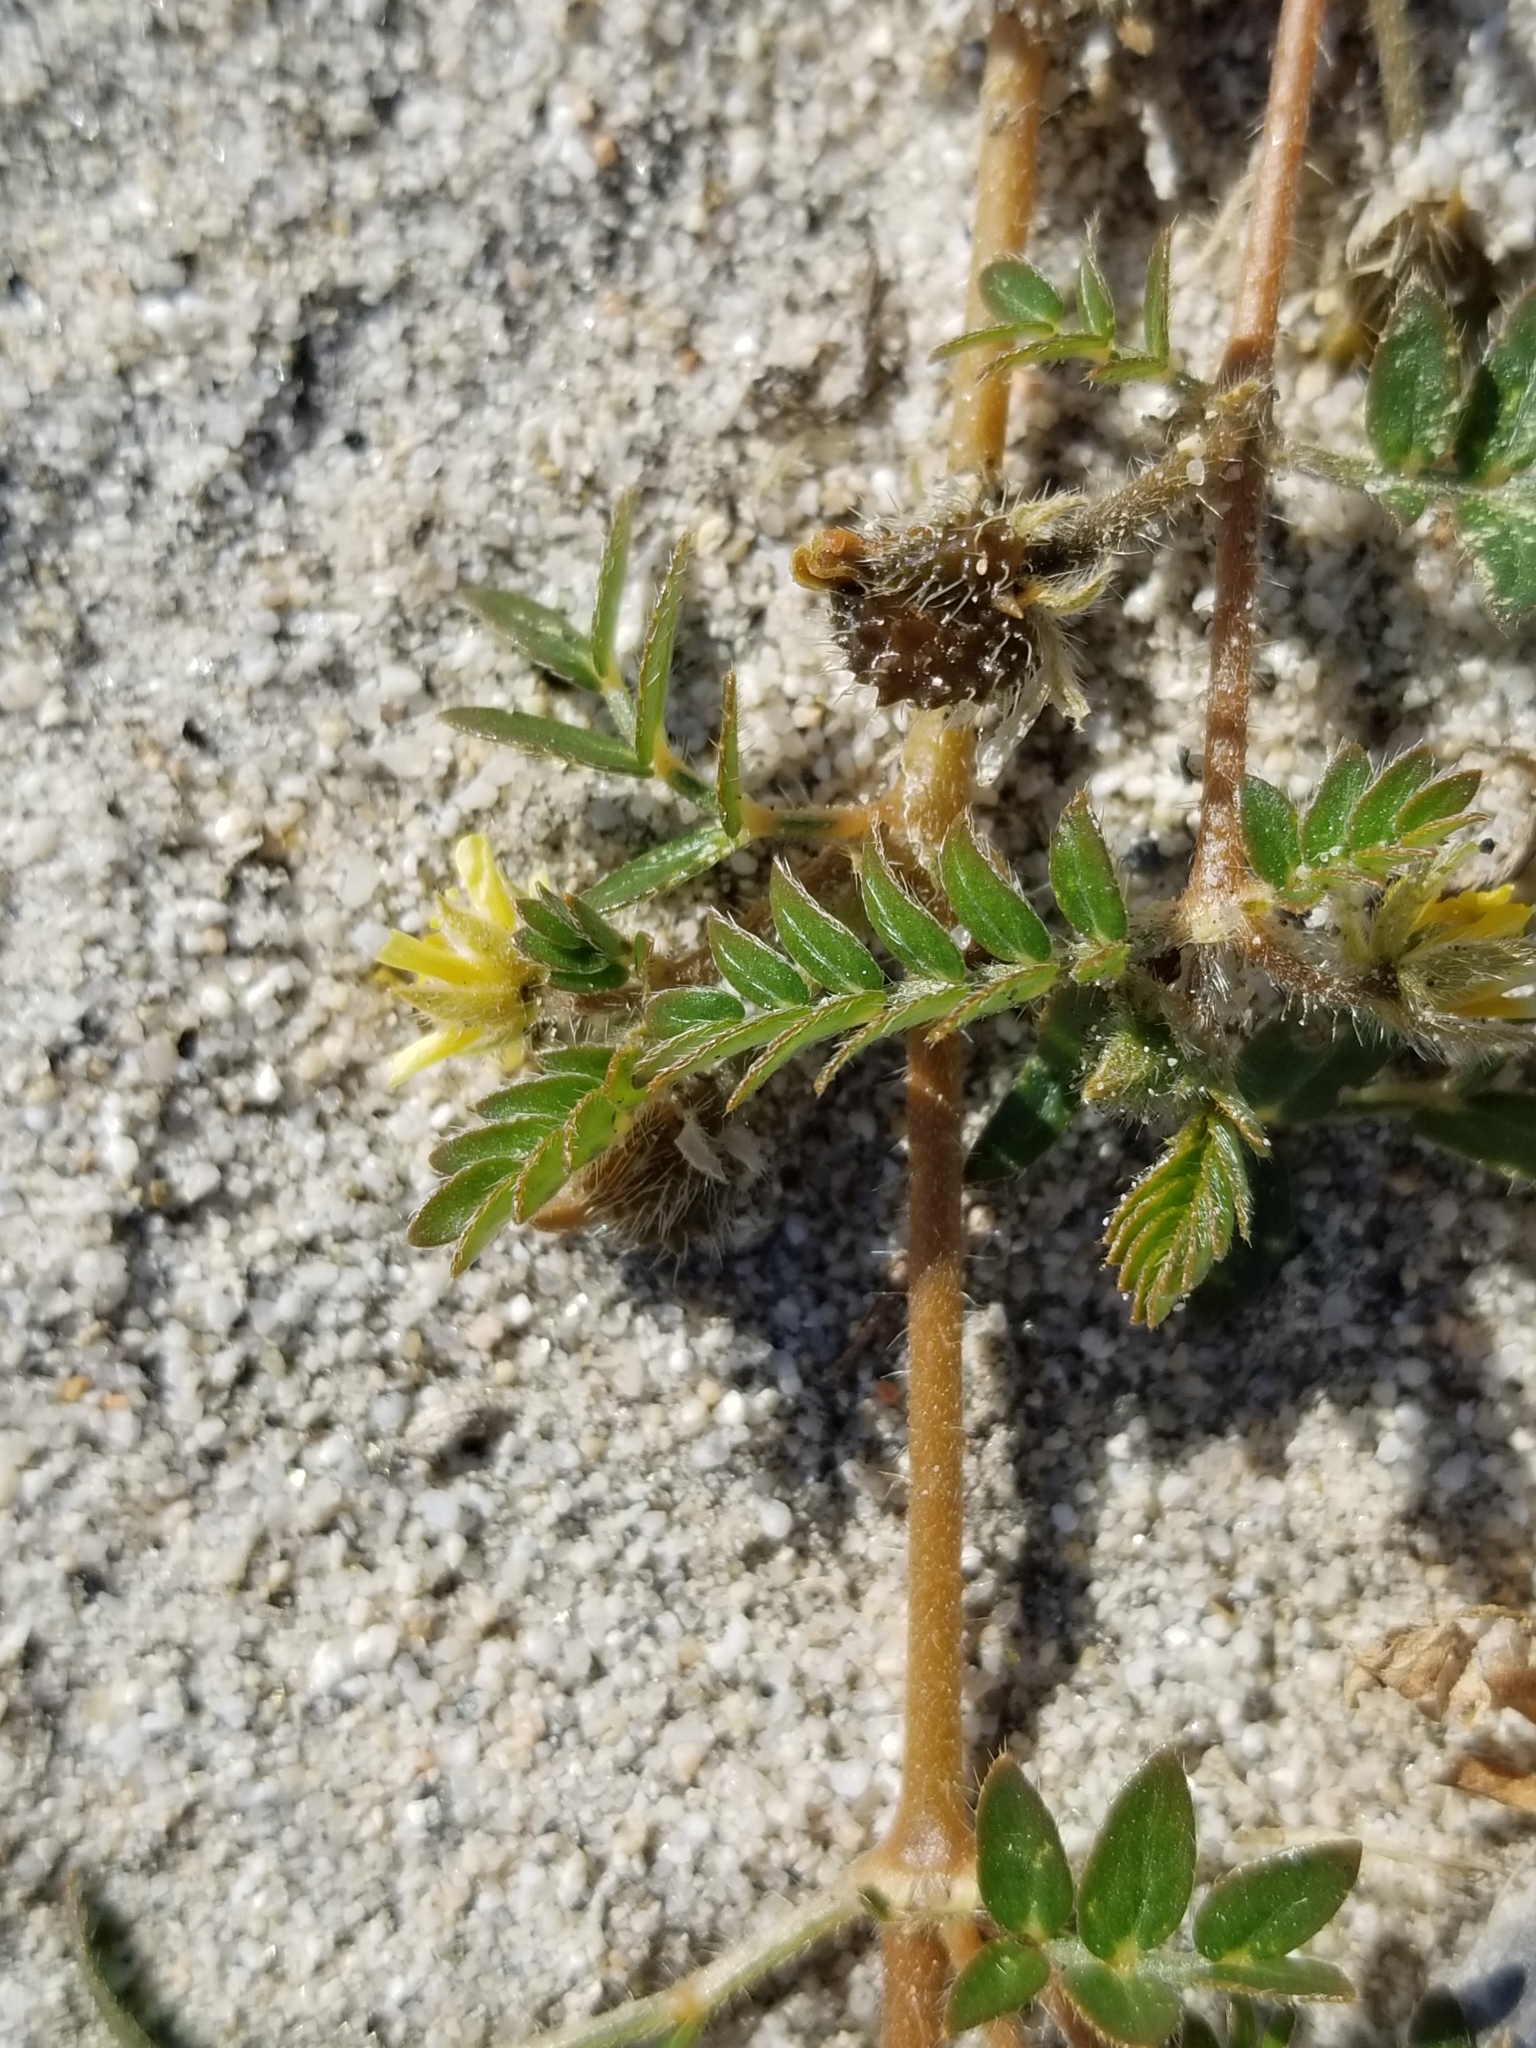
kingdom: Plantae
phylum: Tracheophyta
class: Magnoliopsida
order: Zygophyllales
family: Zygophyllaceae
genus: Tribulus
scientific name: Tribulus terrestris
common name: Puncturevine
